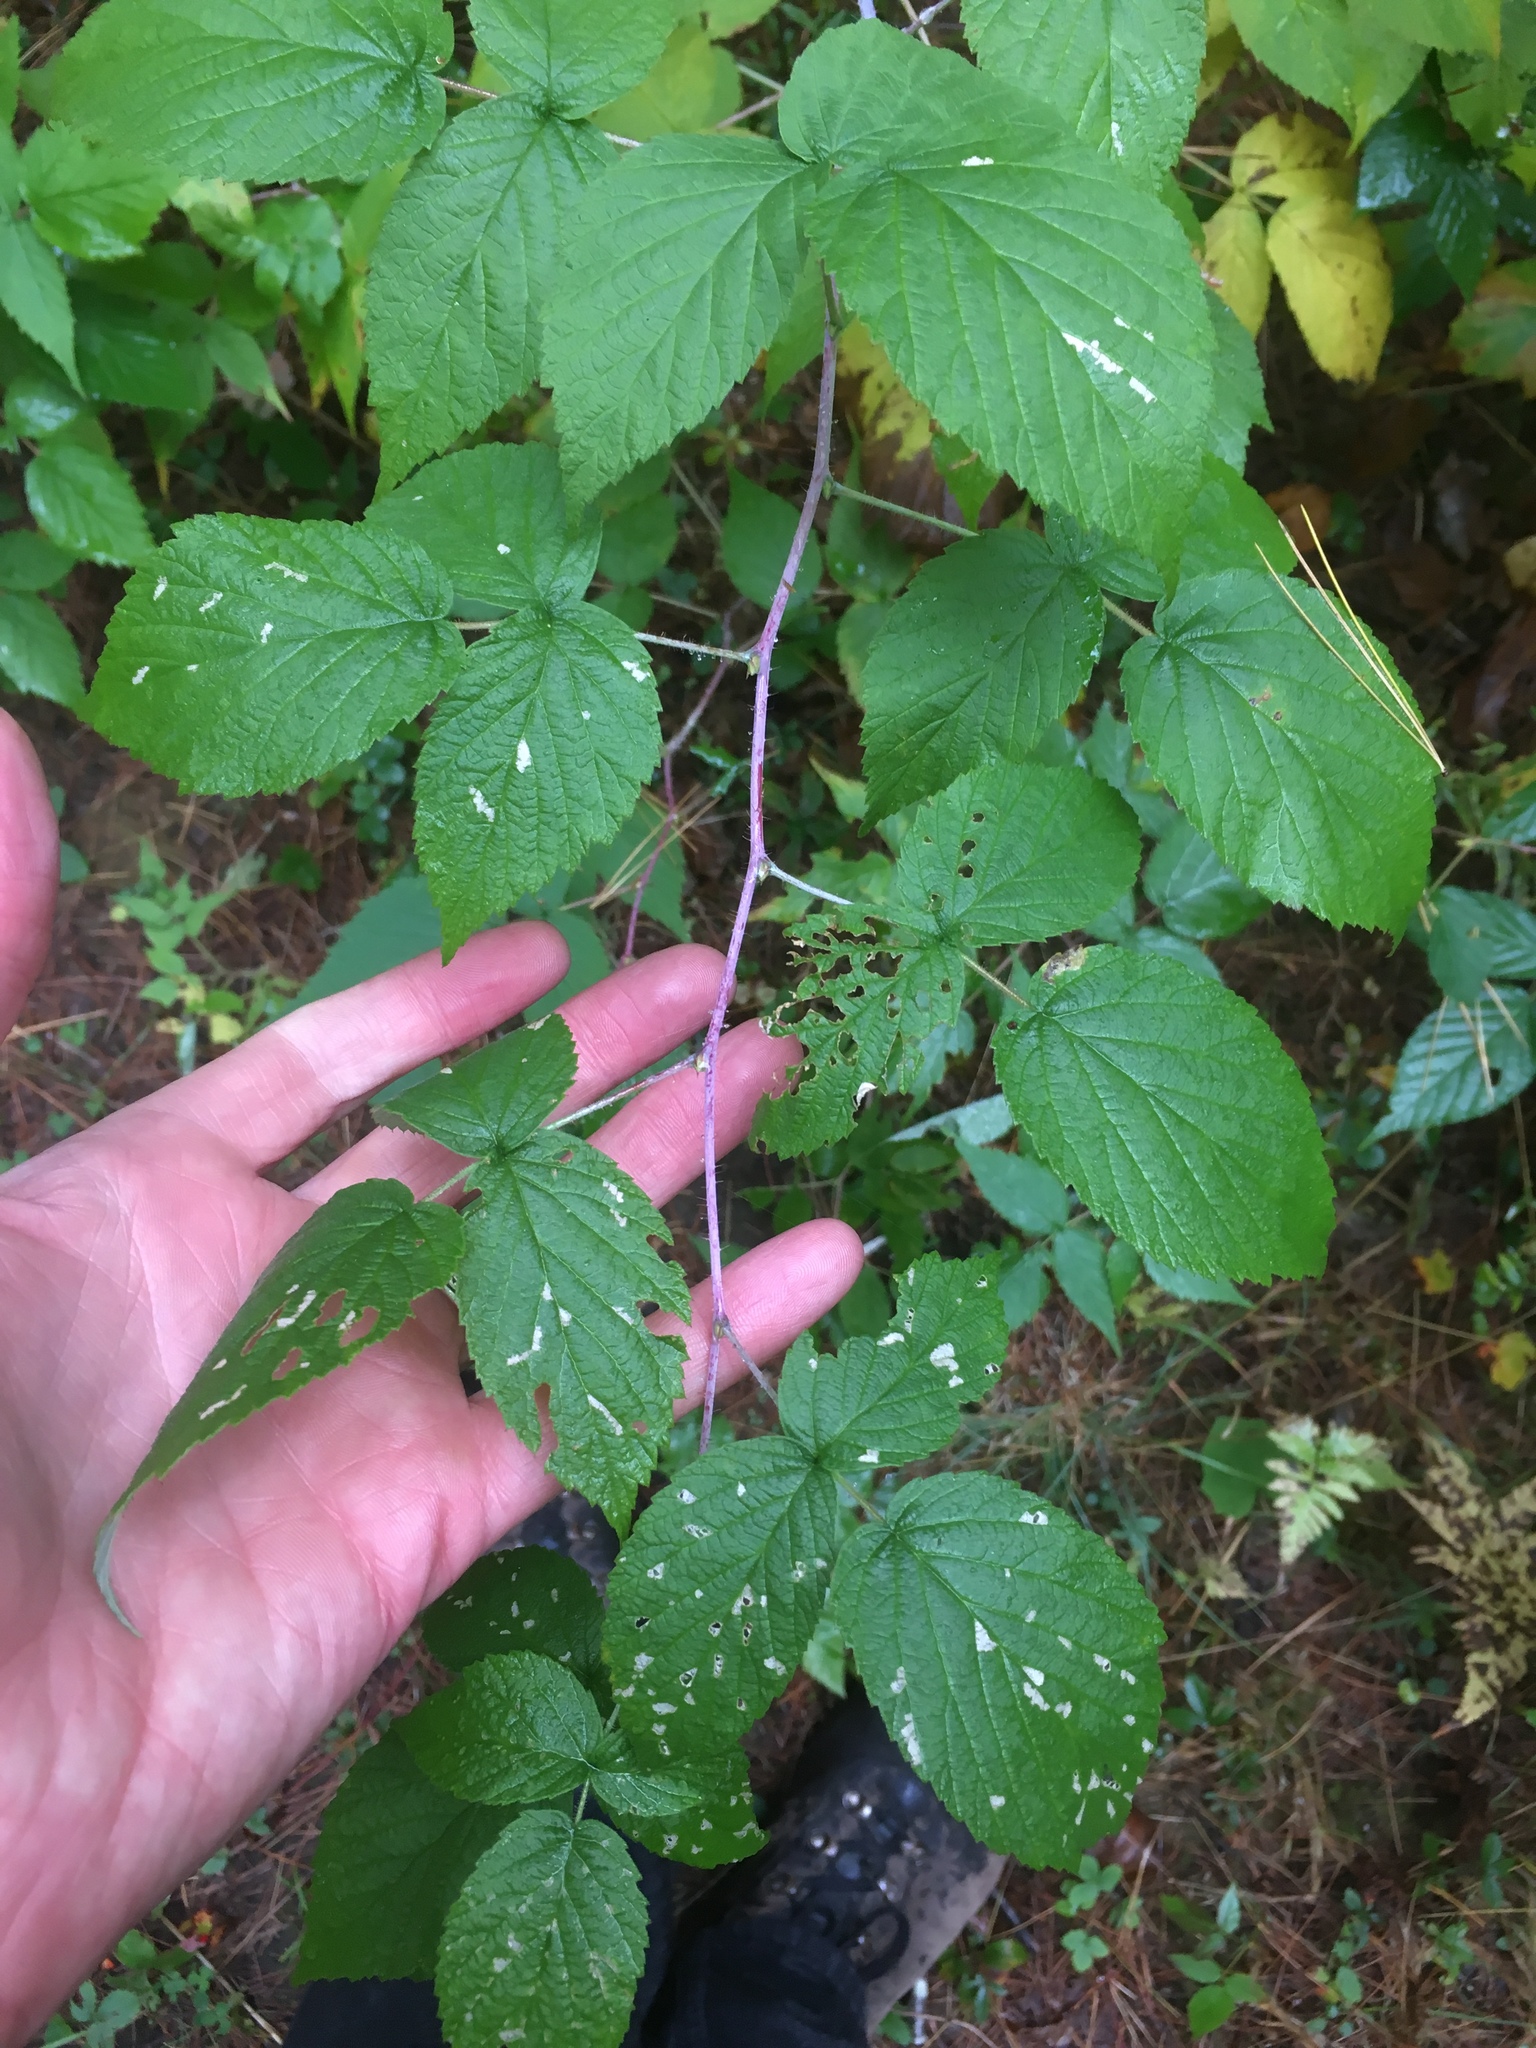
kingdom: Plantae
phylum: Tracheophyta
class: Magnoliopsida
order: Rosales
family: Rosaceae
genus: Rubus
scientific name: Rubus occidentalis
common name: Black raspberry
